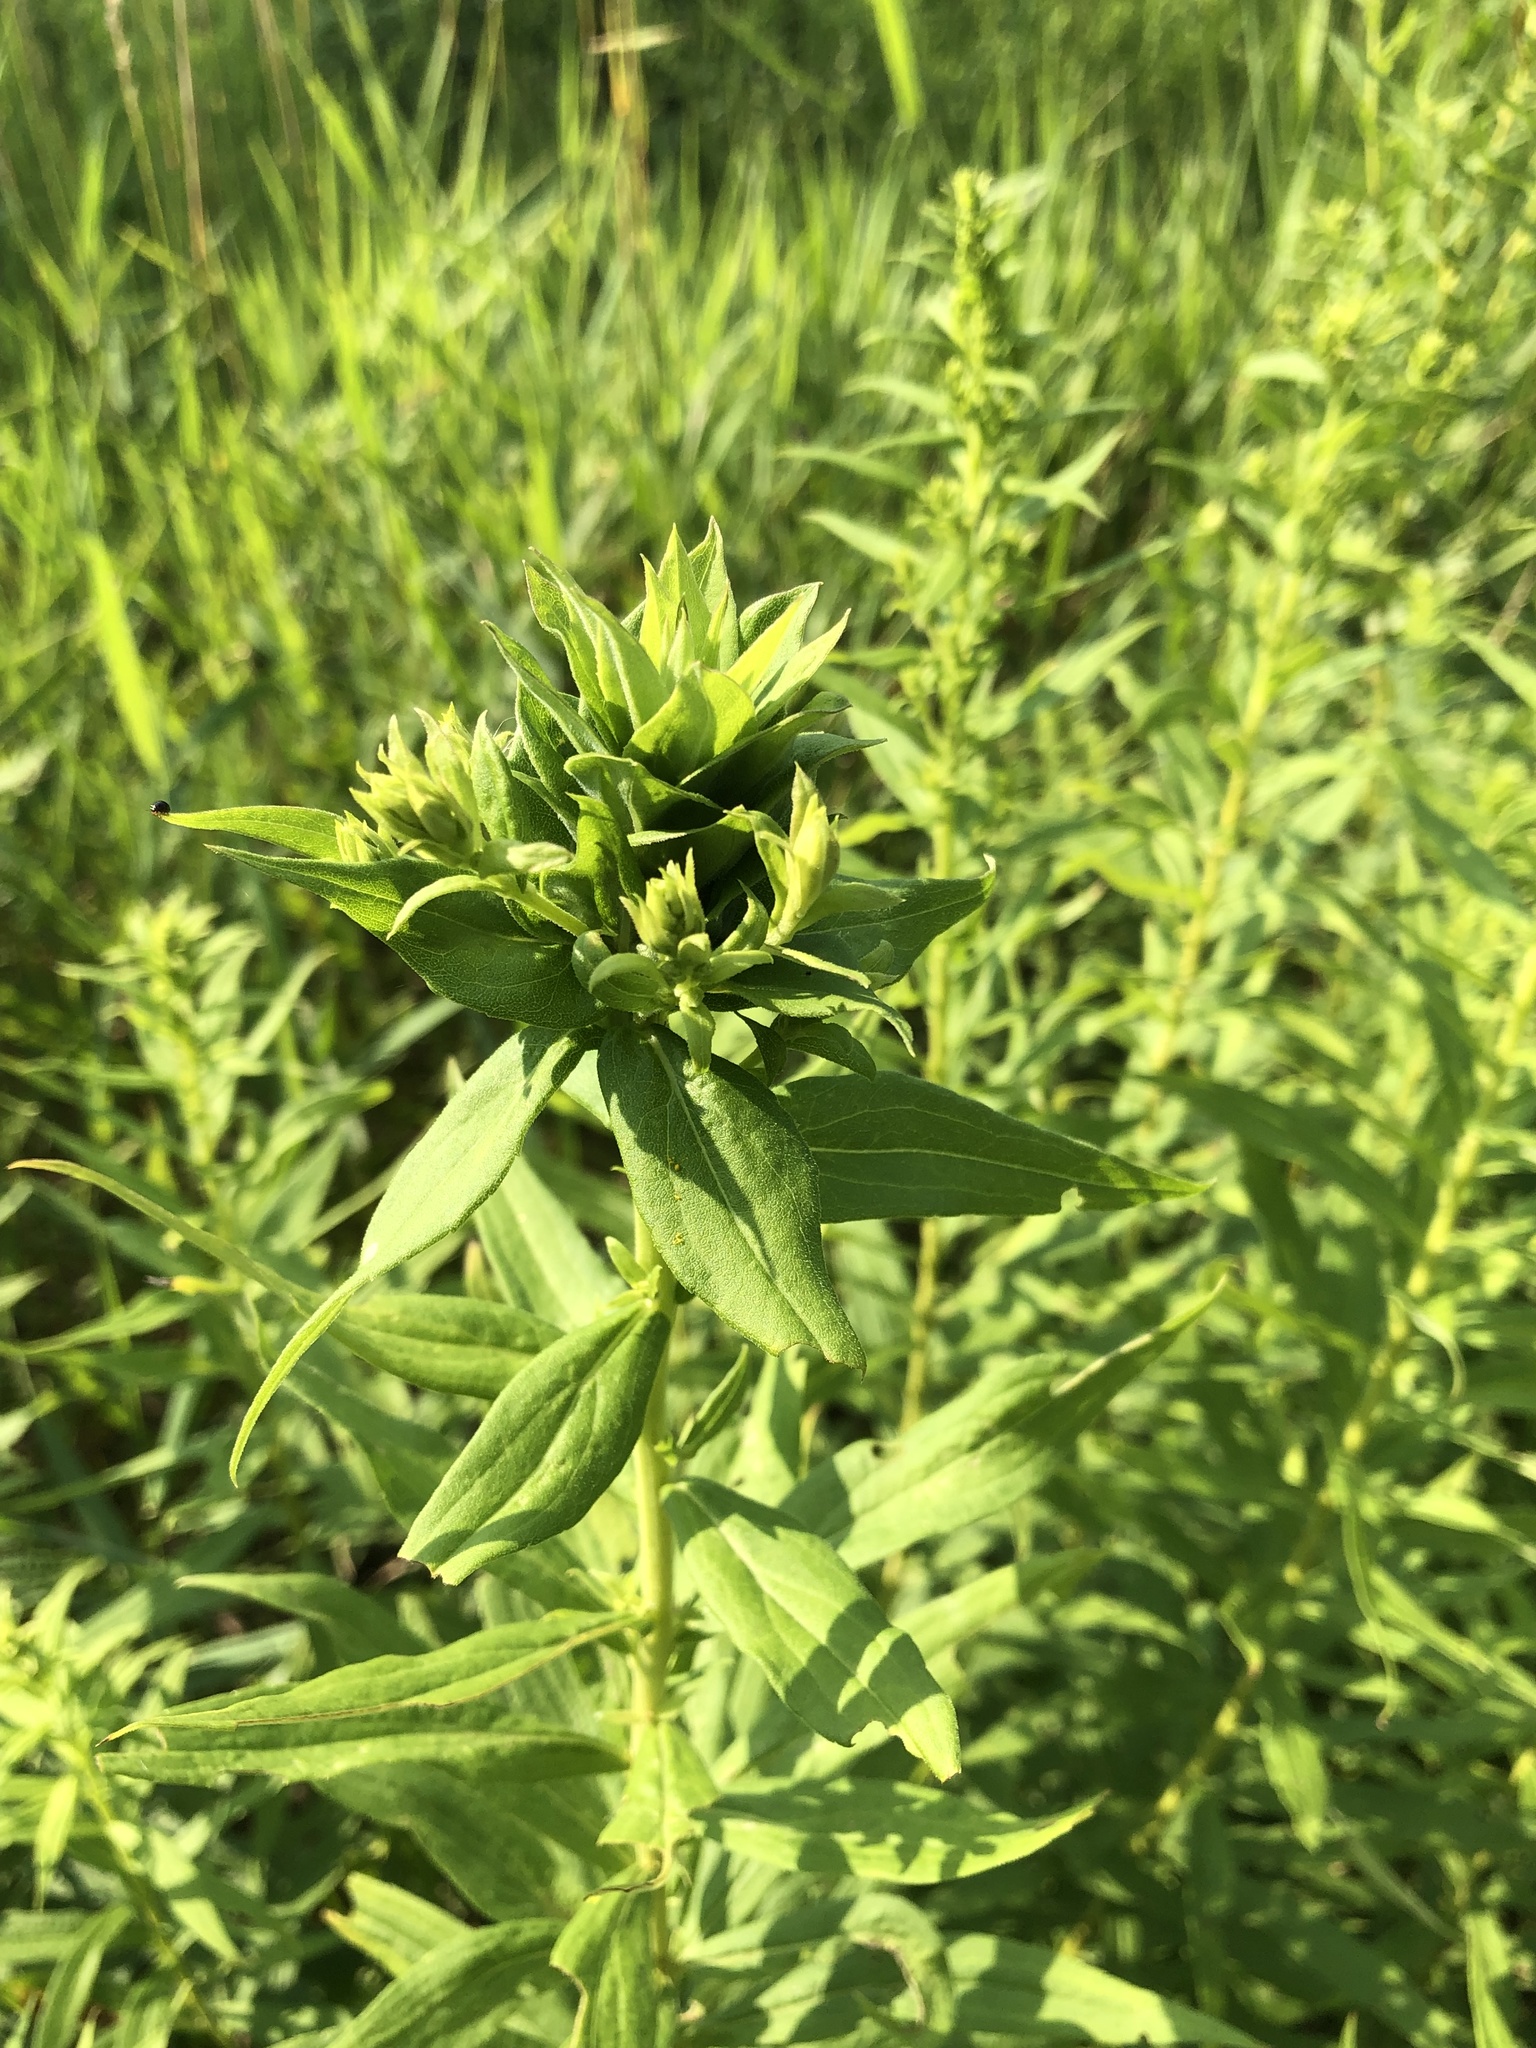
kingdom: Animalia
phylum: Arthropoda
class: Insecta
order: Diptera
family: Cecidomyiidae
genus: Rhopalomyia
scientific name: Rhopalomyia solidaginis
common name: Goldenrod bunch gall midge
